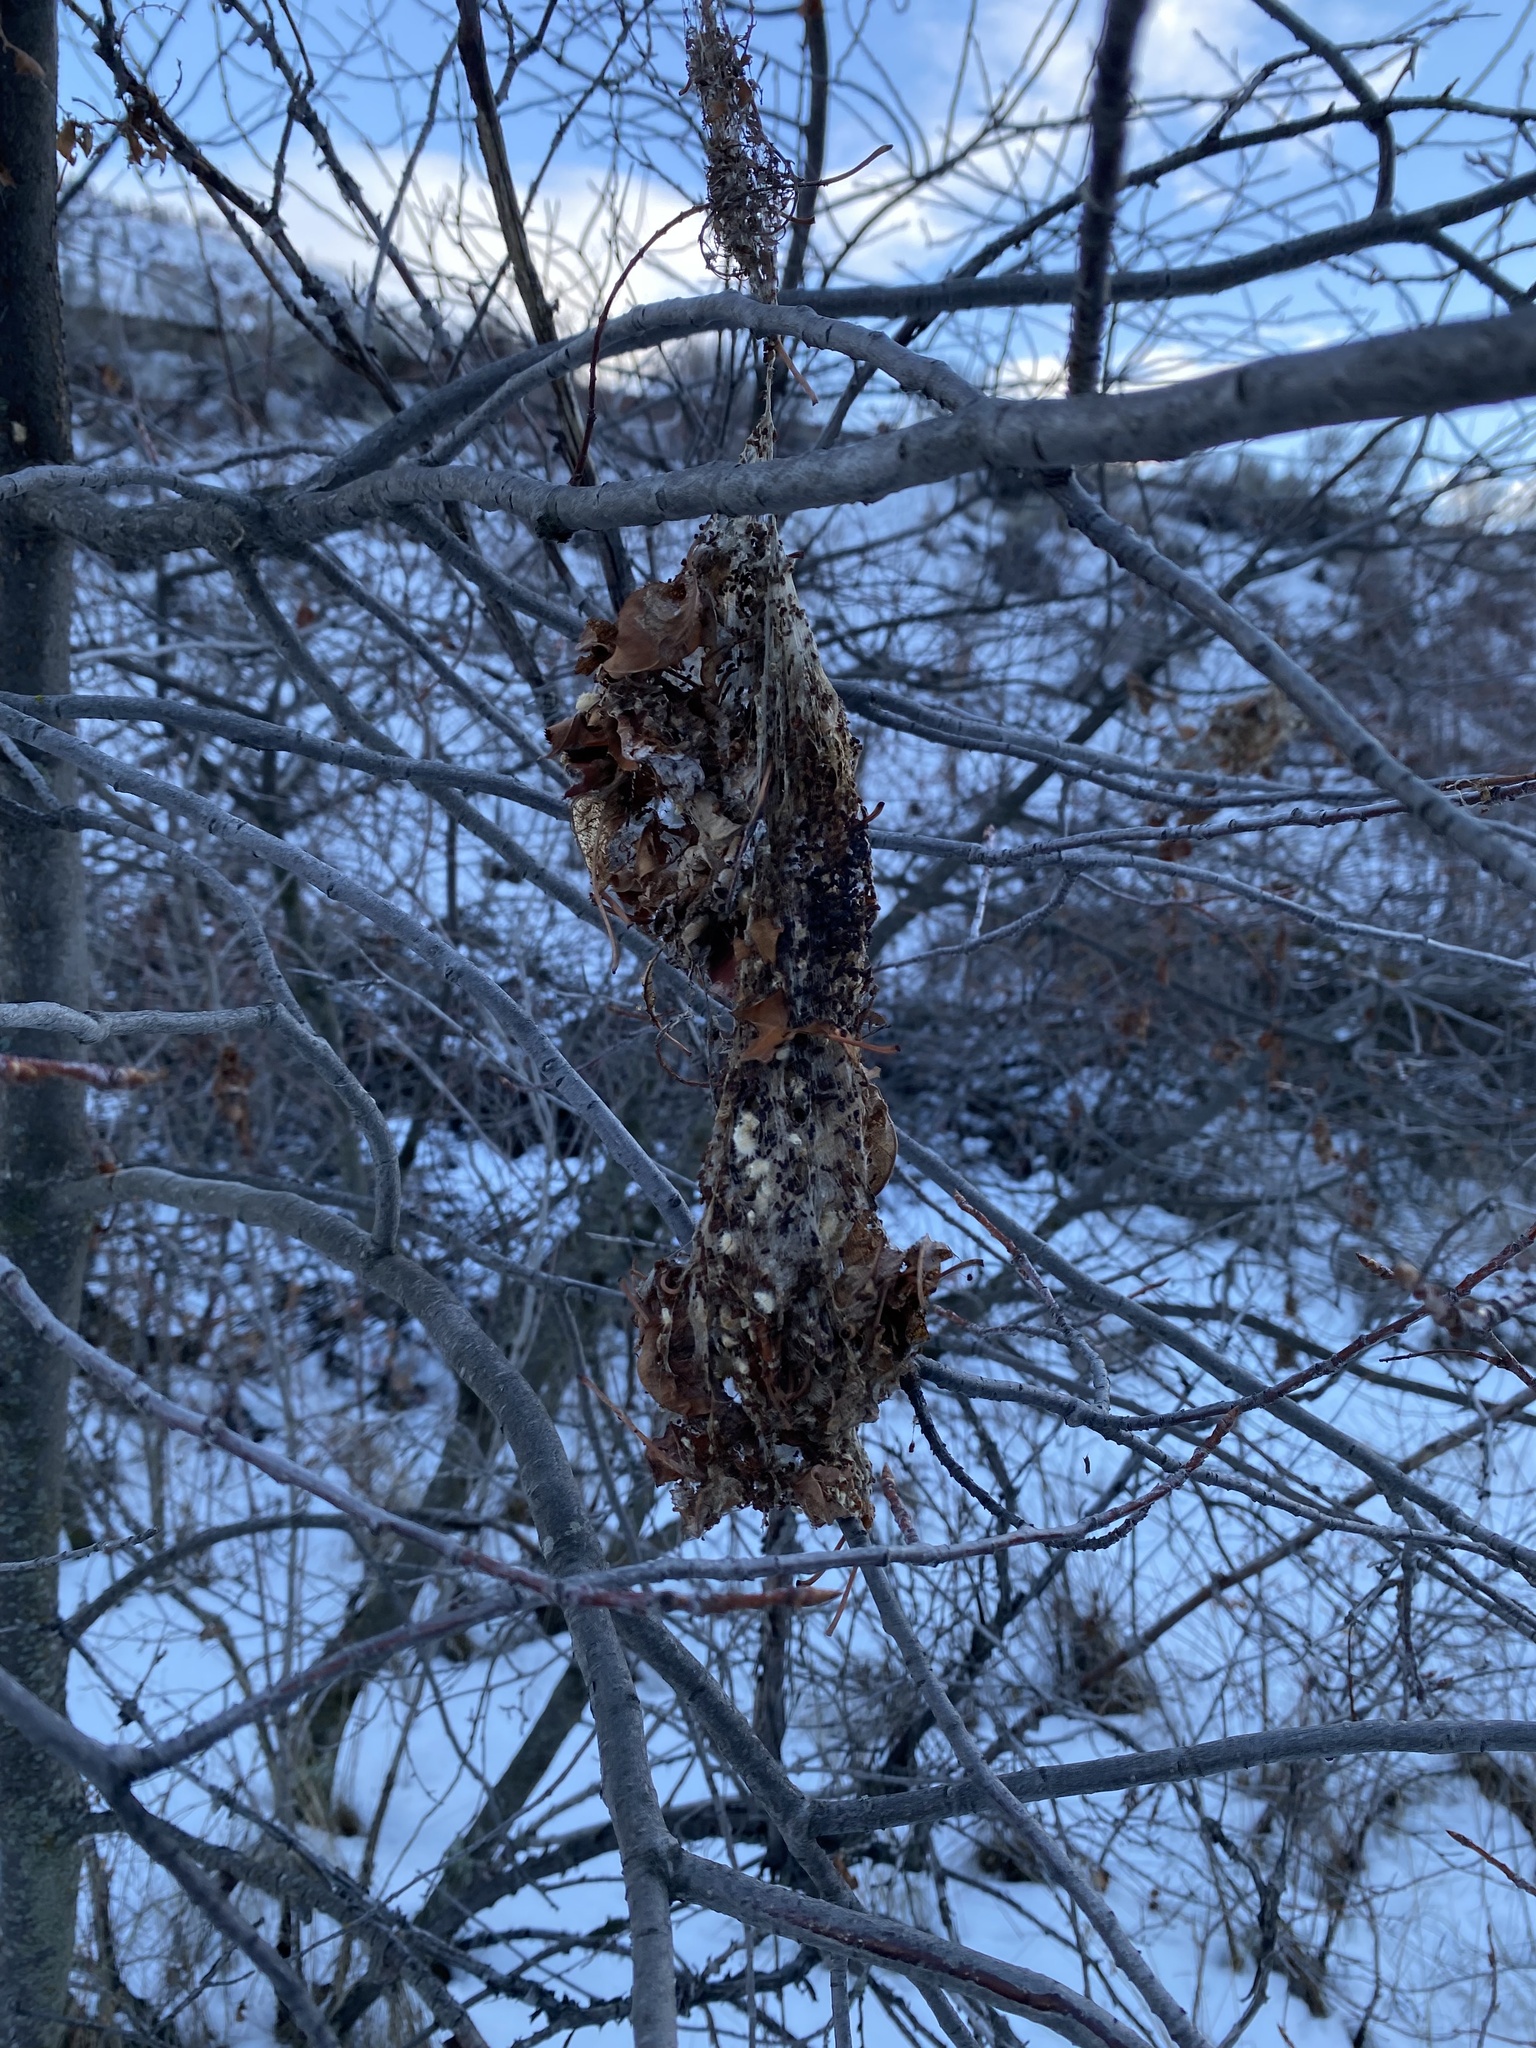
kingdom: Animalia
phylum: Arthropoda
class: Insecta
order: Lepidoptera
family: Erebidae
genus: Hyphantria
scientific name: Hyphantria cunea
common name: American white moth
